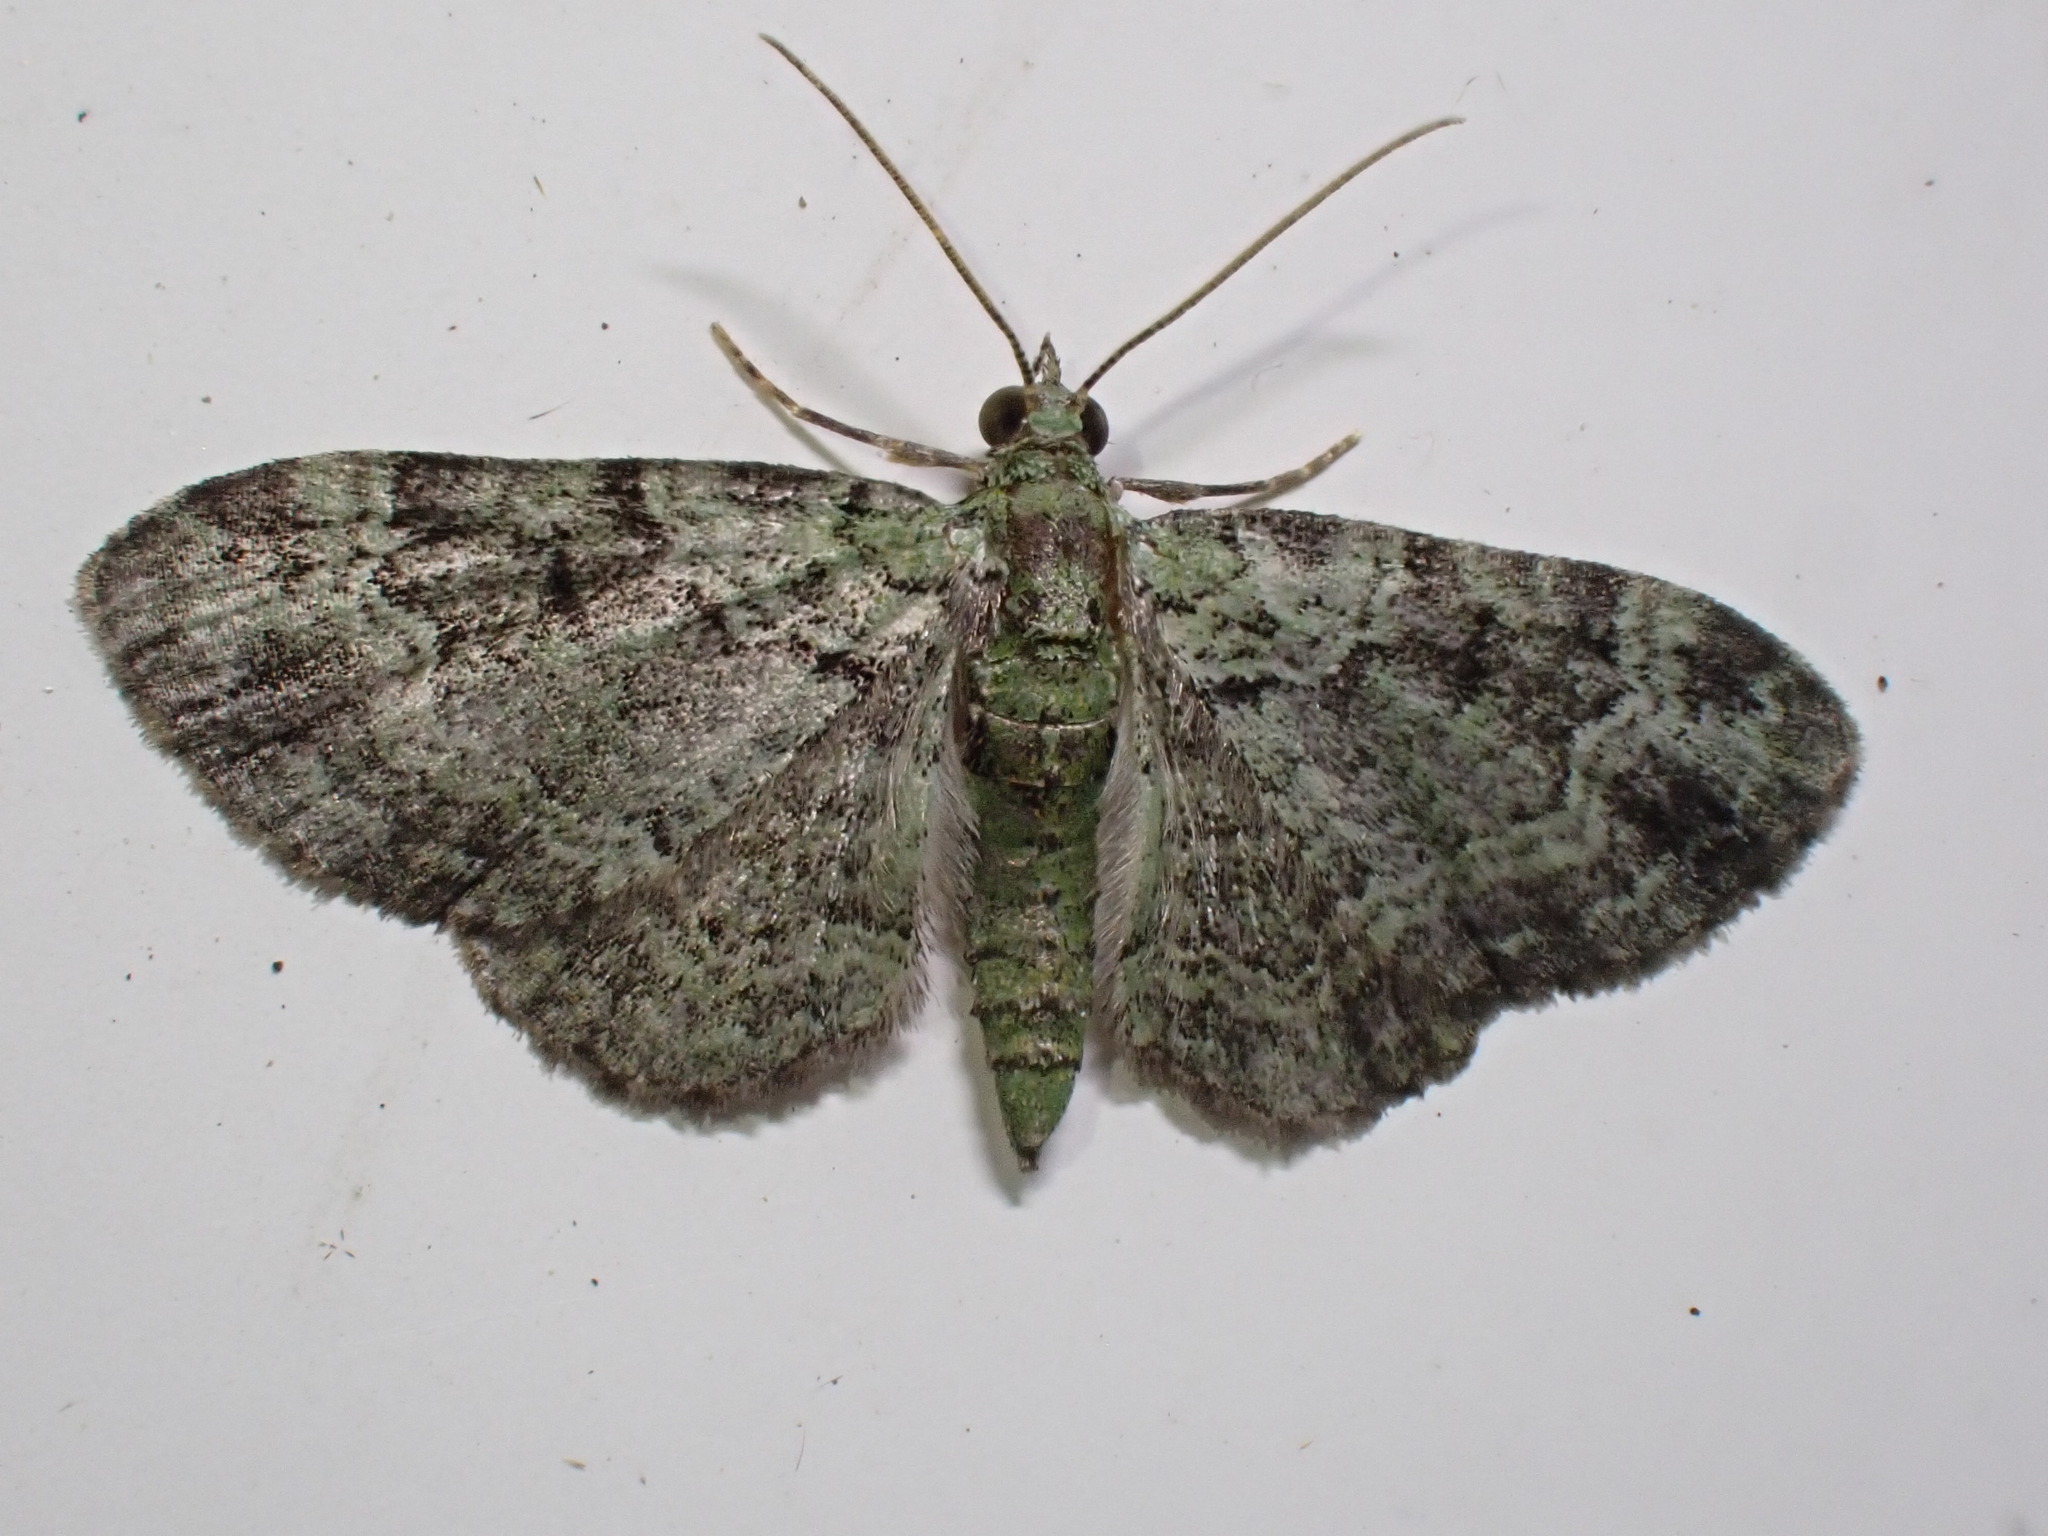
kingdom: Animalia
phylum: Arthropoda
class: Insecta
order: Lepidoptera
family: Geometridae
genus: Pasiphila
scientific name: Pasiphila rectangulata
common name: Green pug
